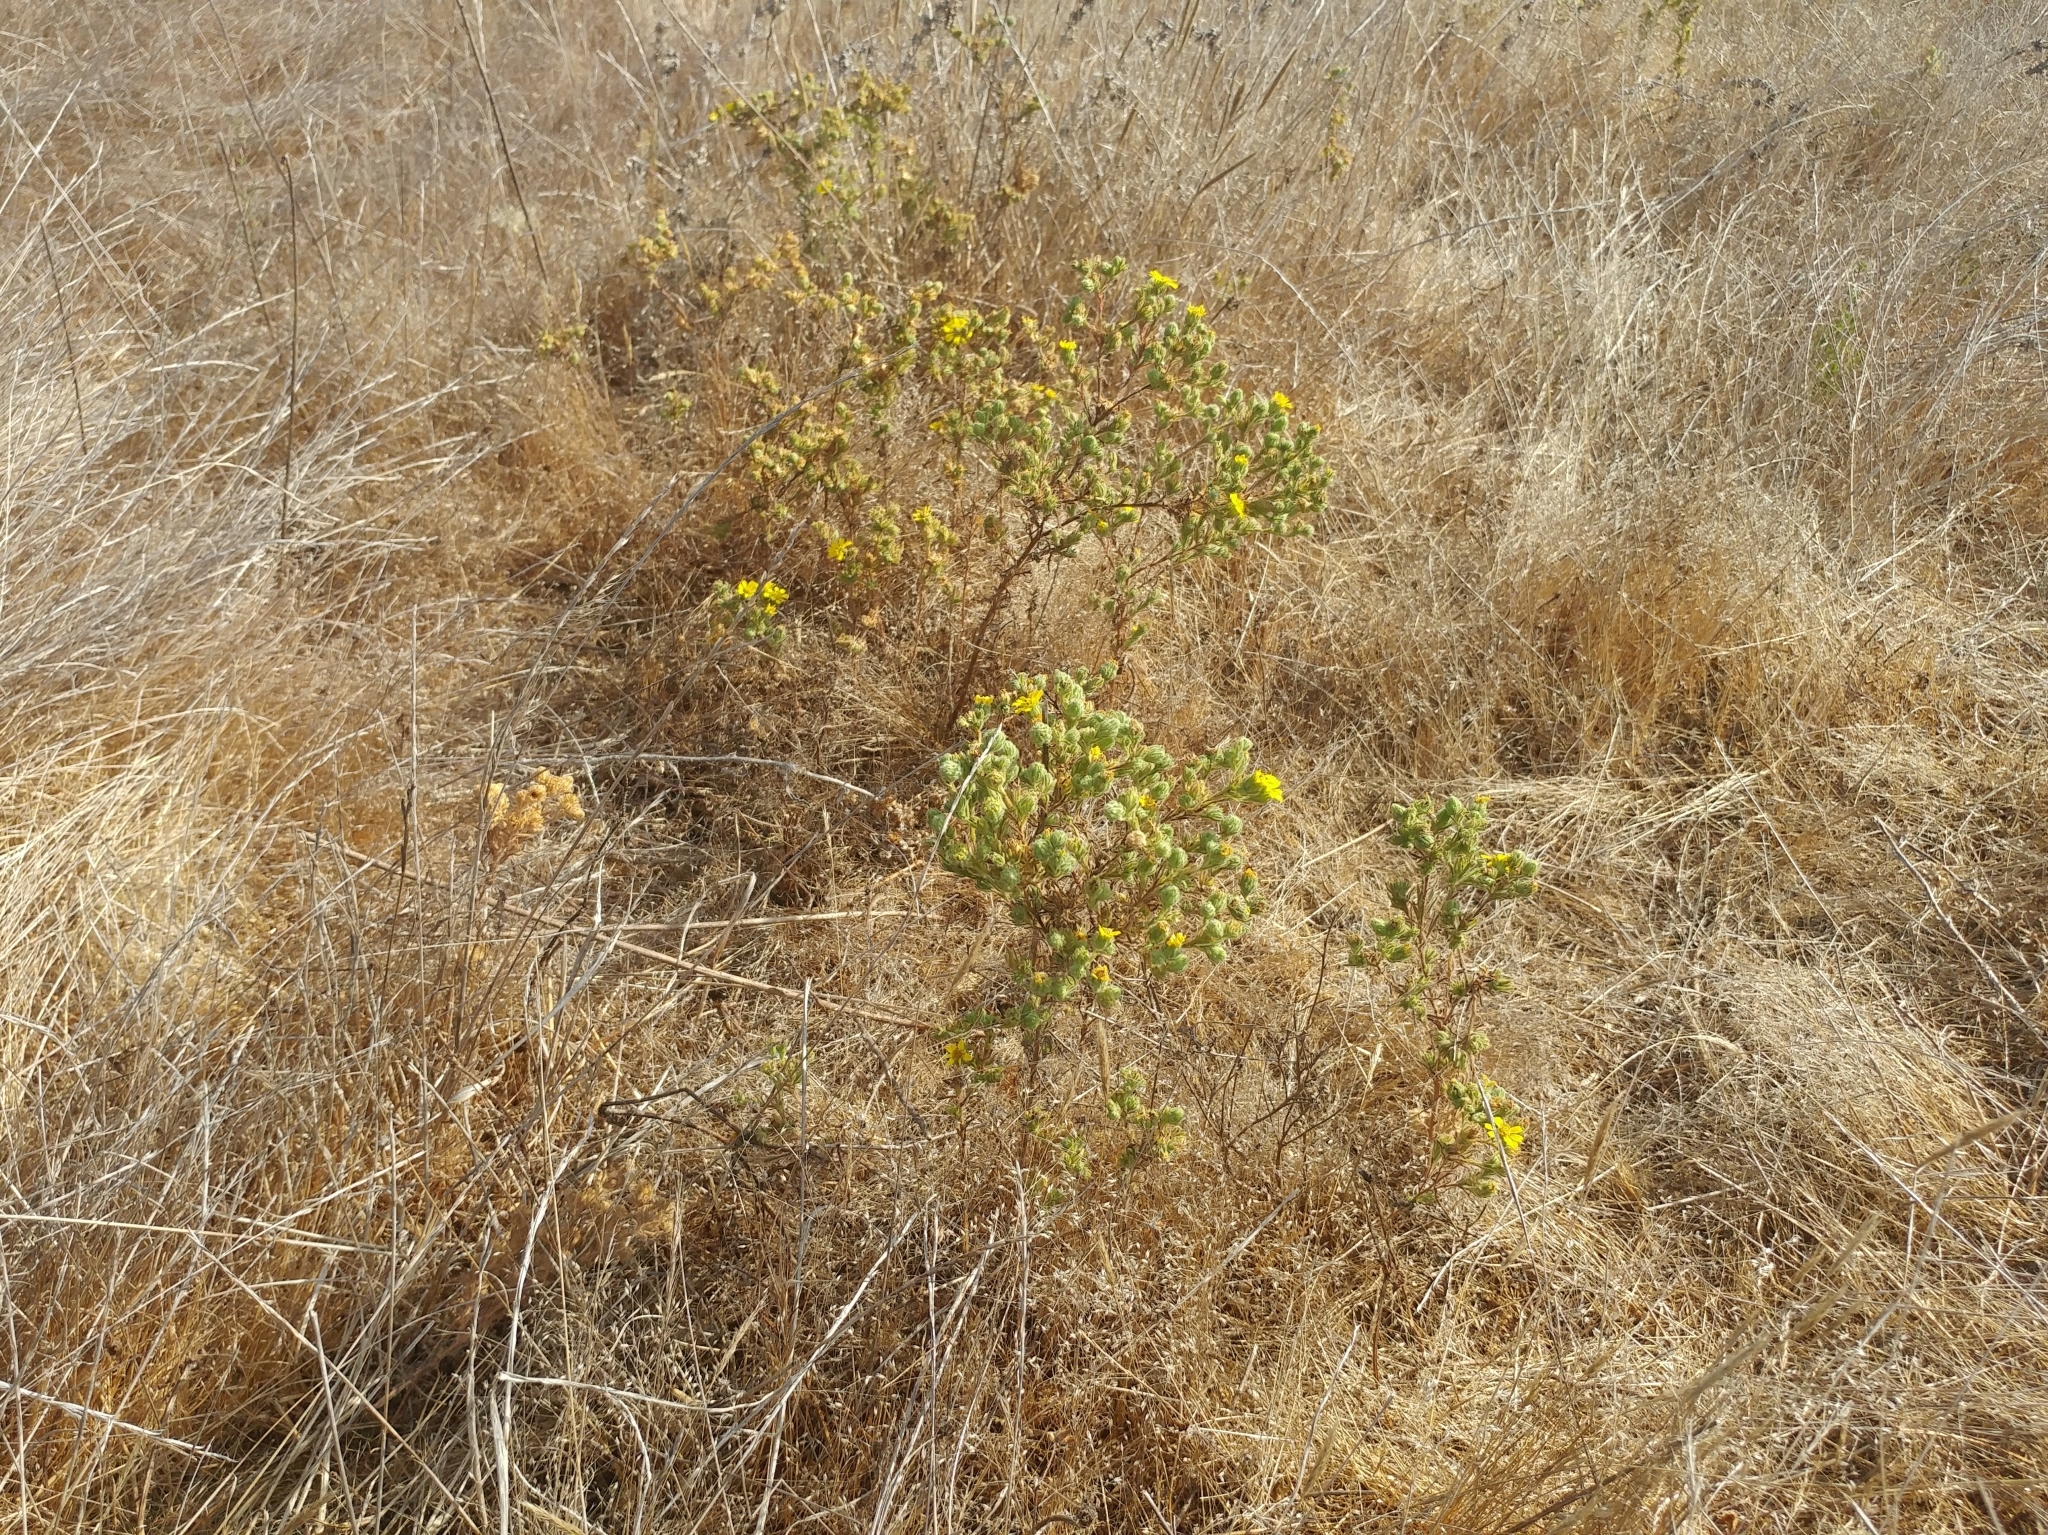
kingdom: Plantae
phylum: Tracheophyta
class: Magnoliopsida
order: Asterales
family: Asteraceae
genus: Deinandra
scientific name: Deinandra increscens
